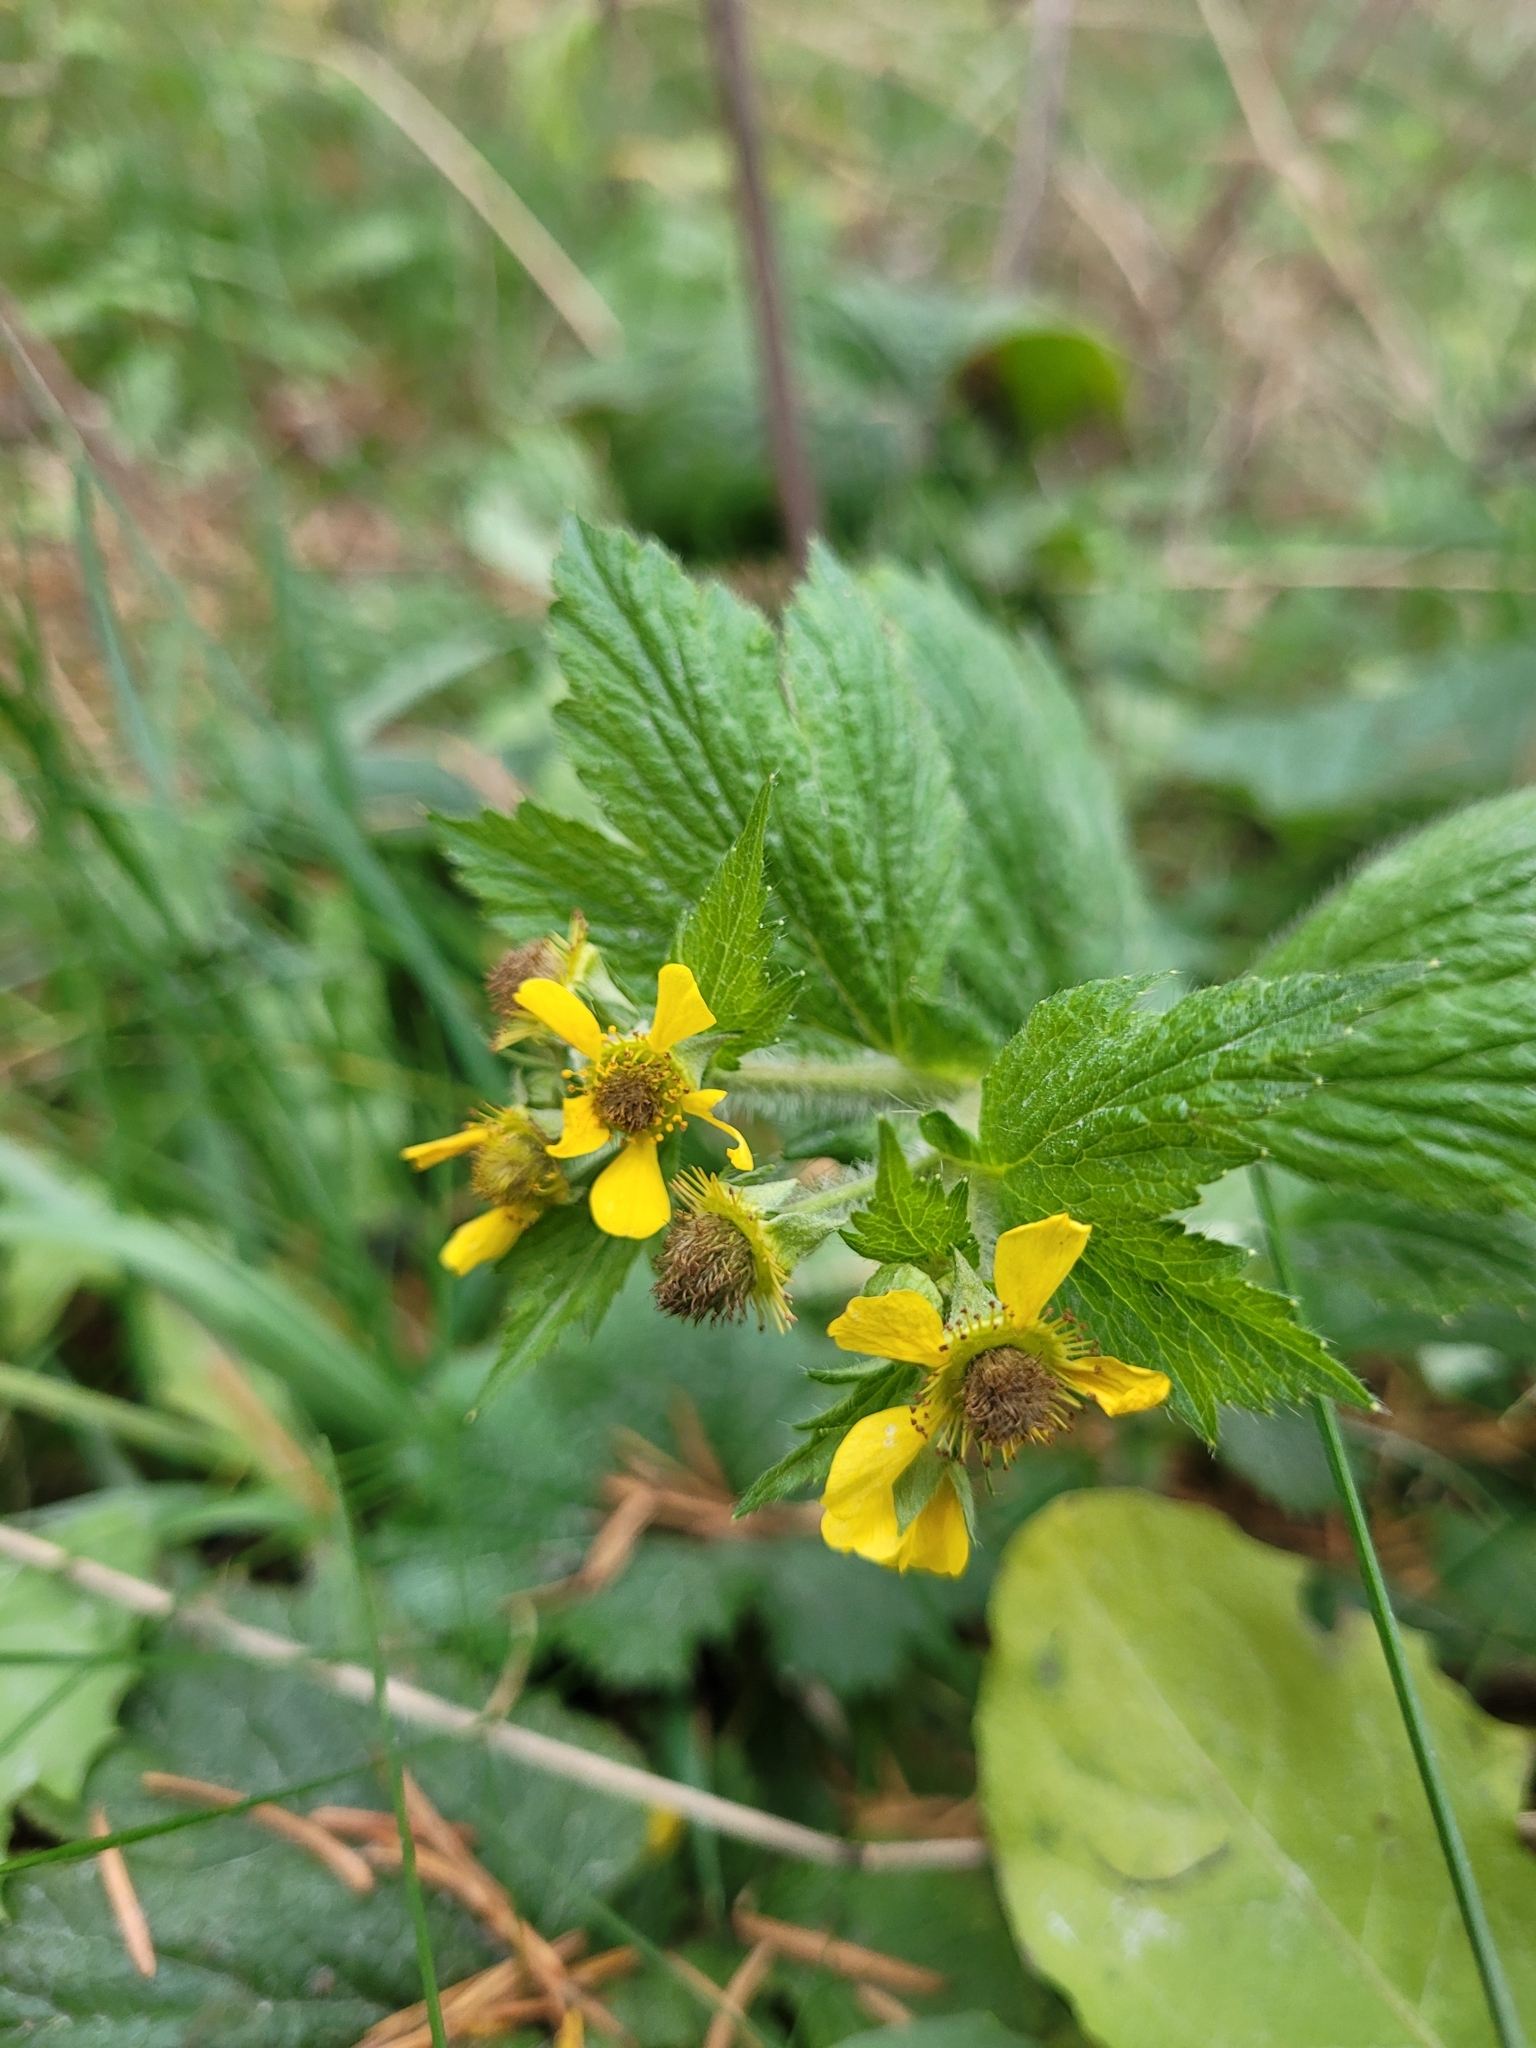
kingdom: Plantae
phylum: Tracheophyta
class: Magnoliopsida
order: Rosales
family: Rosaceae
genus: Geum
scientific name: Geum macrophyllum
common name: Large-leaved avens
